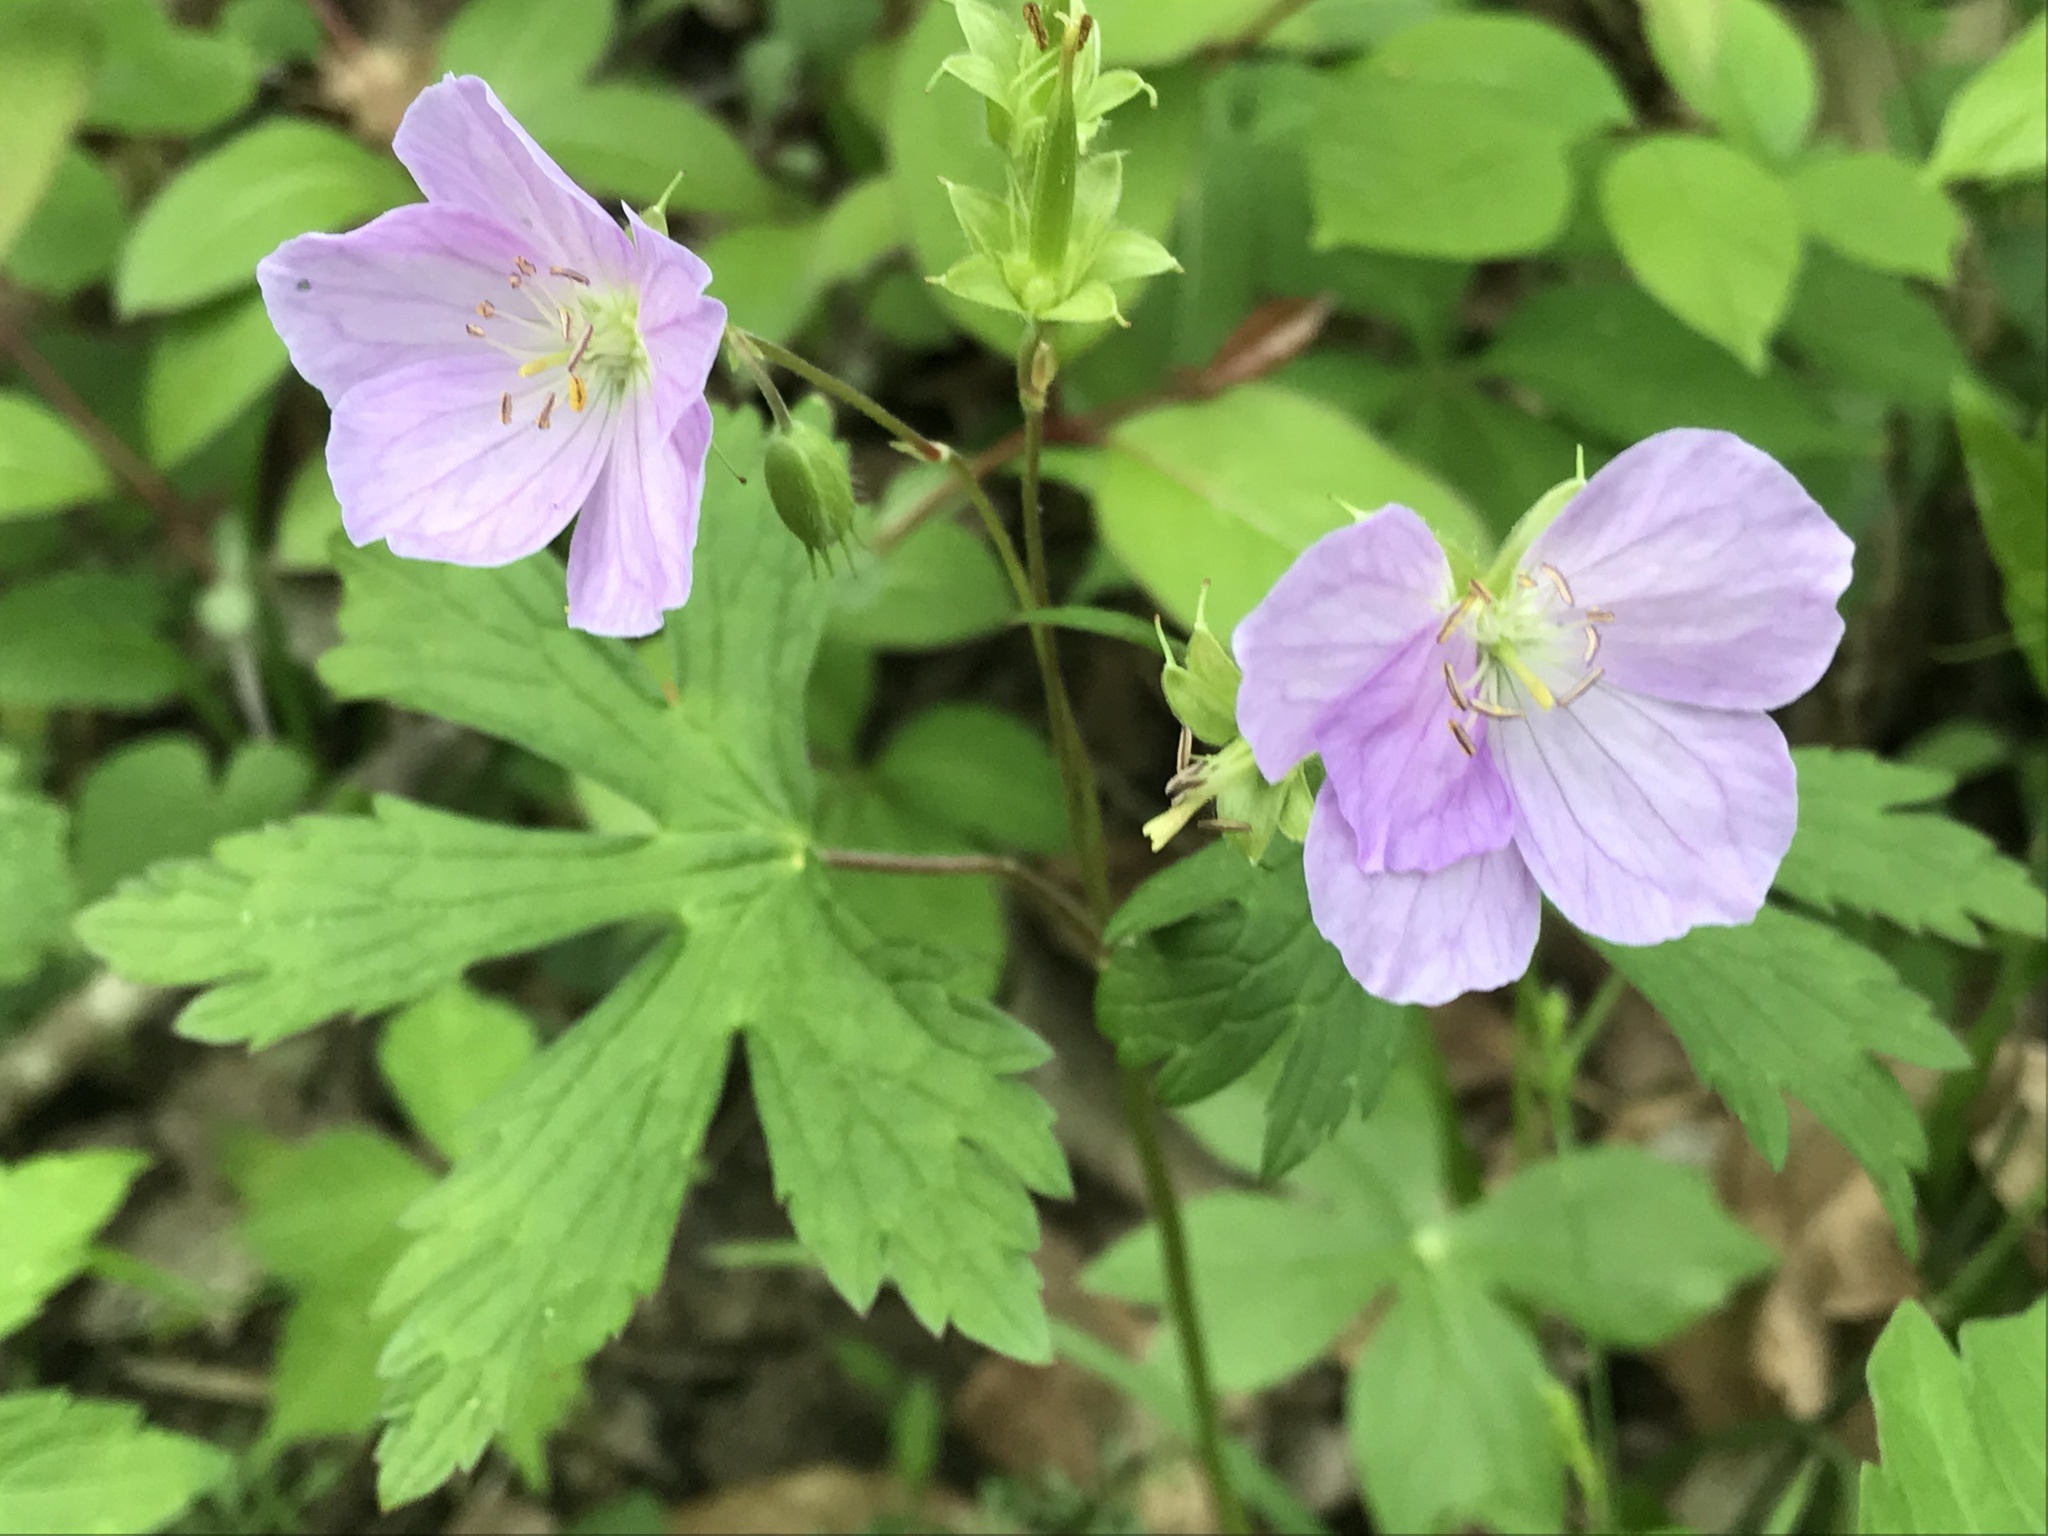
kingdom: Plantae
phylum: Tracheophyta
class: Magnoliopsida
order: Geraniales
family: Geraniaceae
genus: Geranium
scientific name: Geranium maculatum
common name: Spotted geranium
